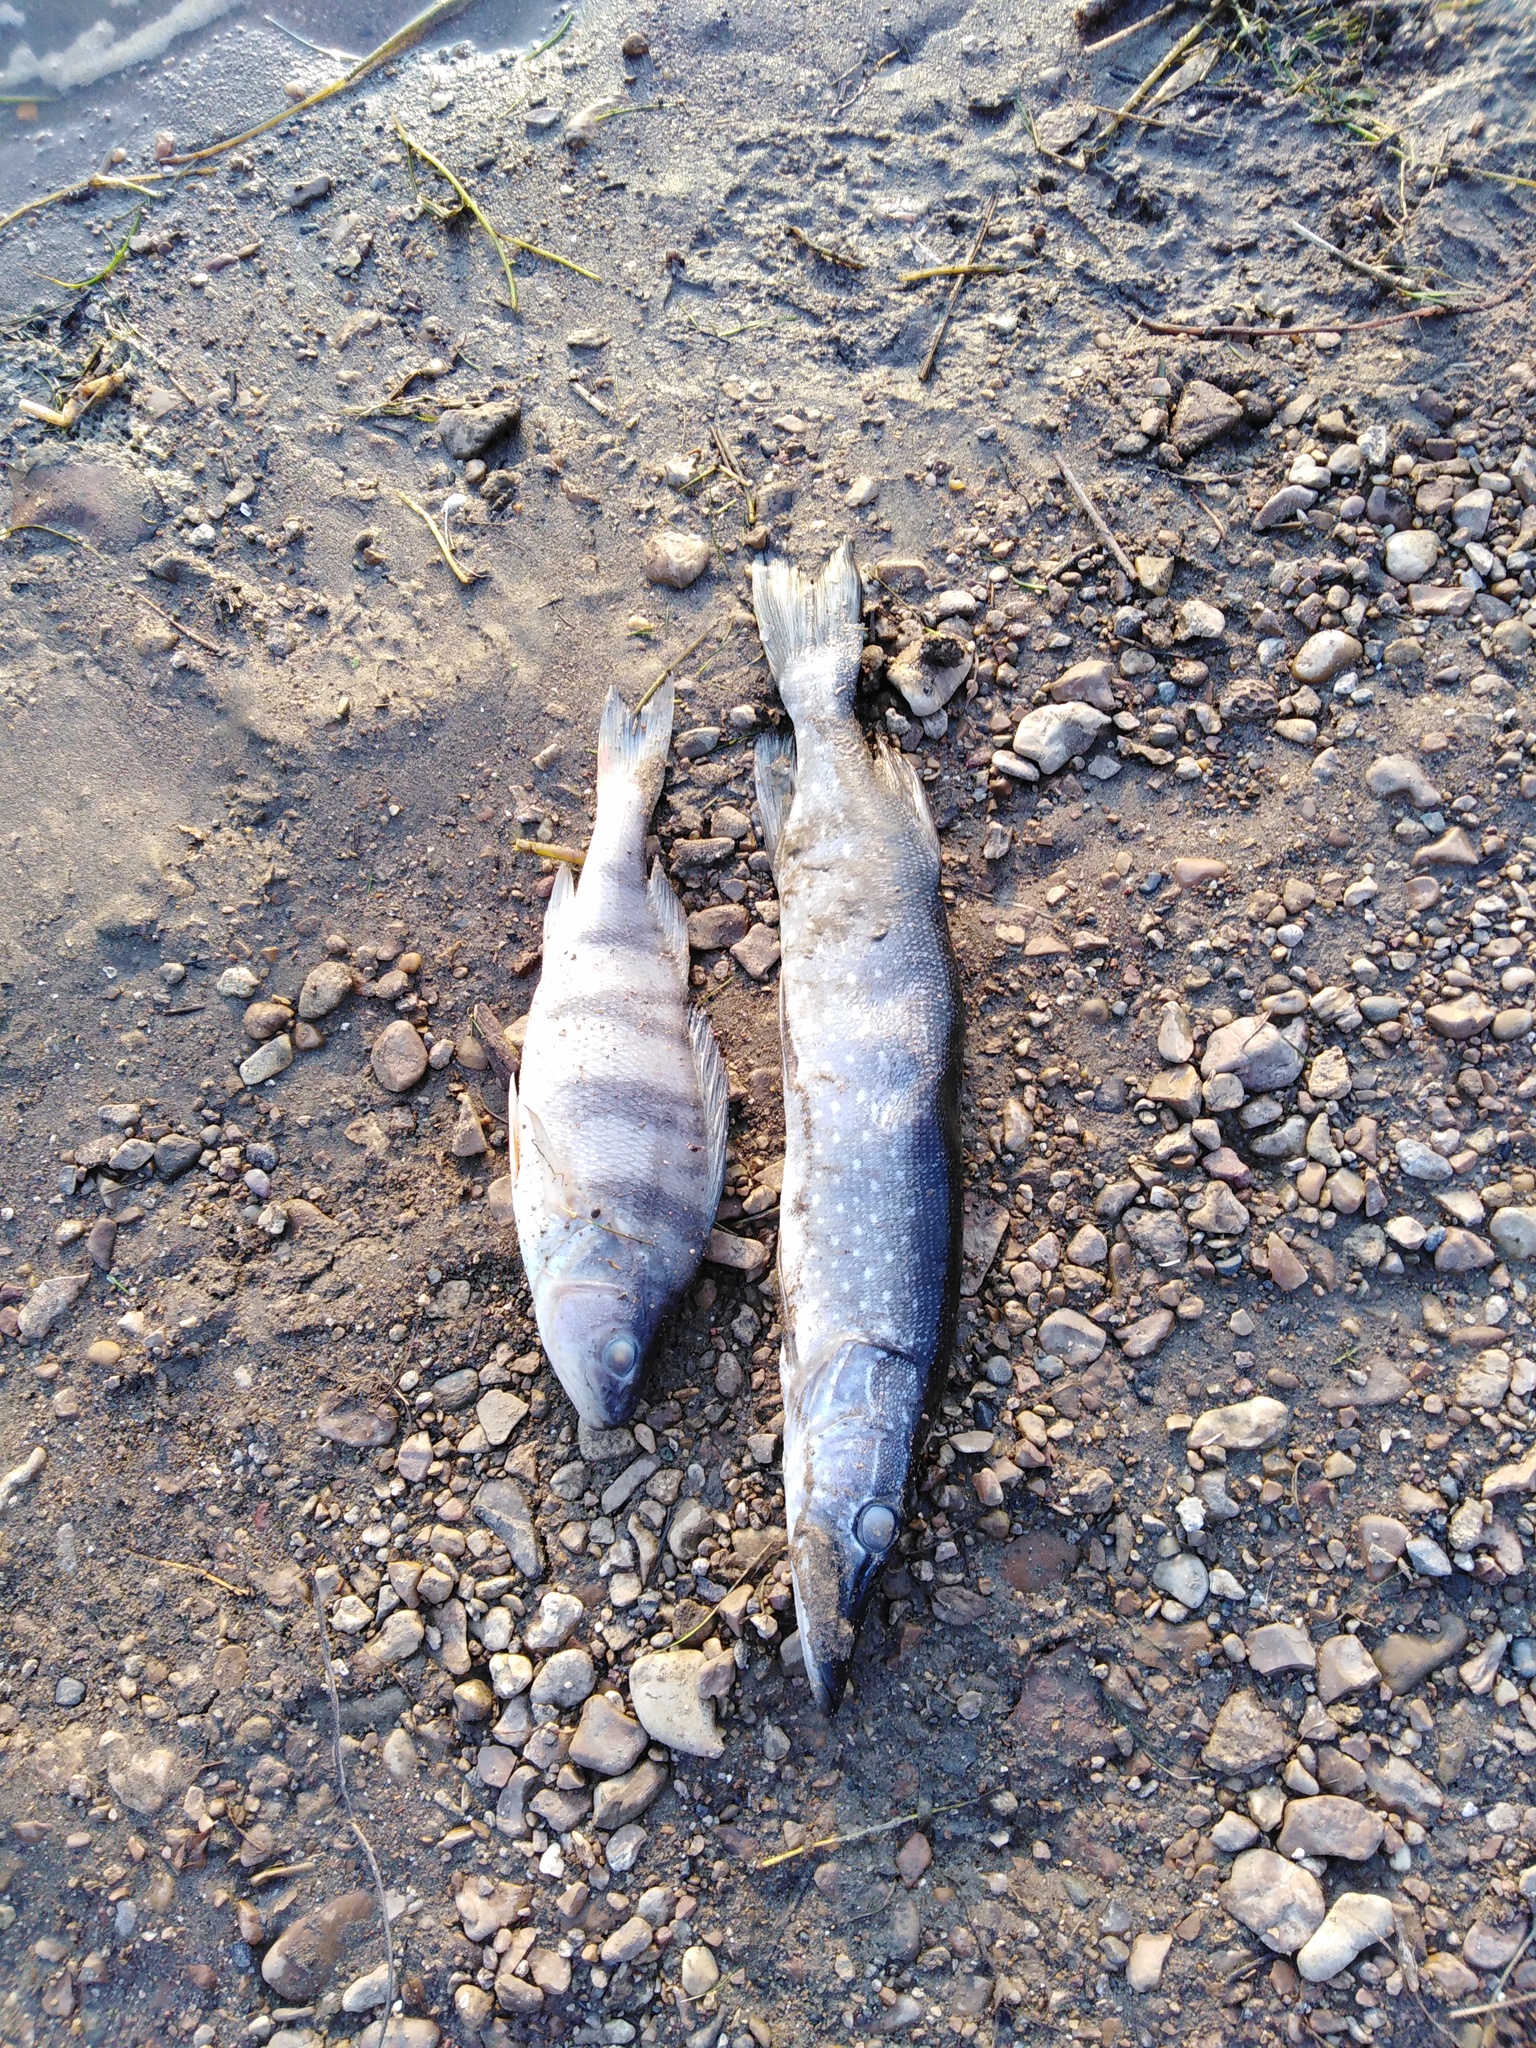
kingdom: Animalia
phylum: Chordata
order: Esociformes
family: Esocidae
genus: Esox
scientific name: Esox lucius
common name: Northern pike
